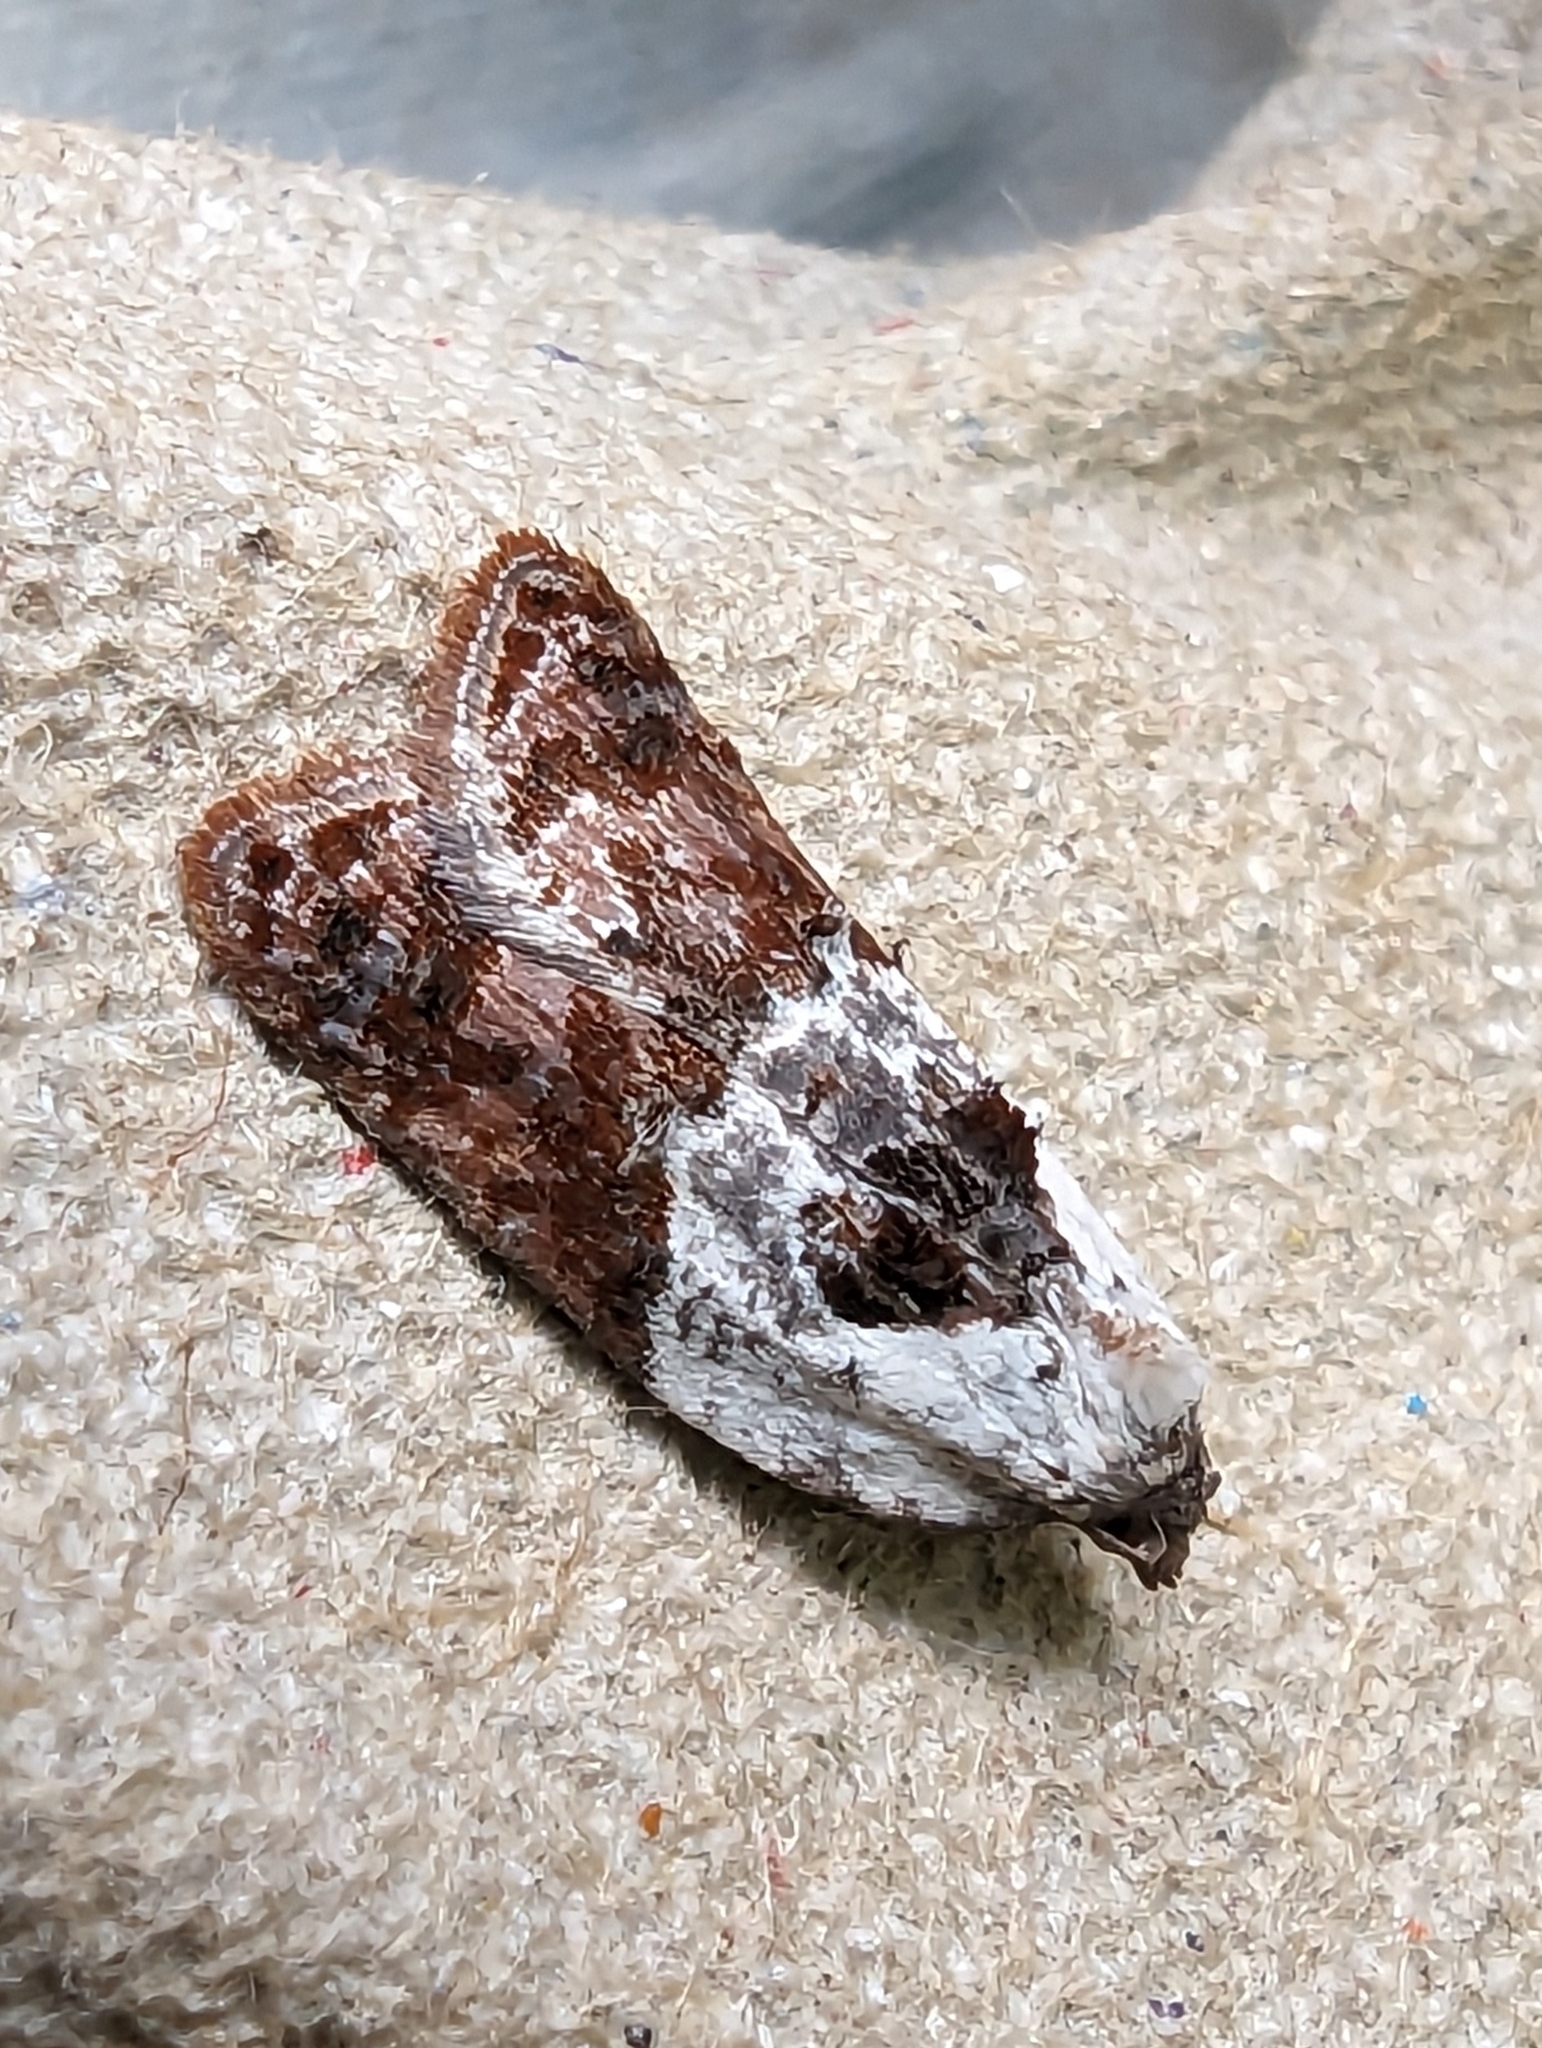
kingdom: Animalia
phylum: Arthropoda
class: Insecta
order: Lepidoptera
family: Tortricidae
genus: Acleris
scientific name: Acleris variegana
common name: Garden rose tortrix
